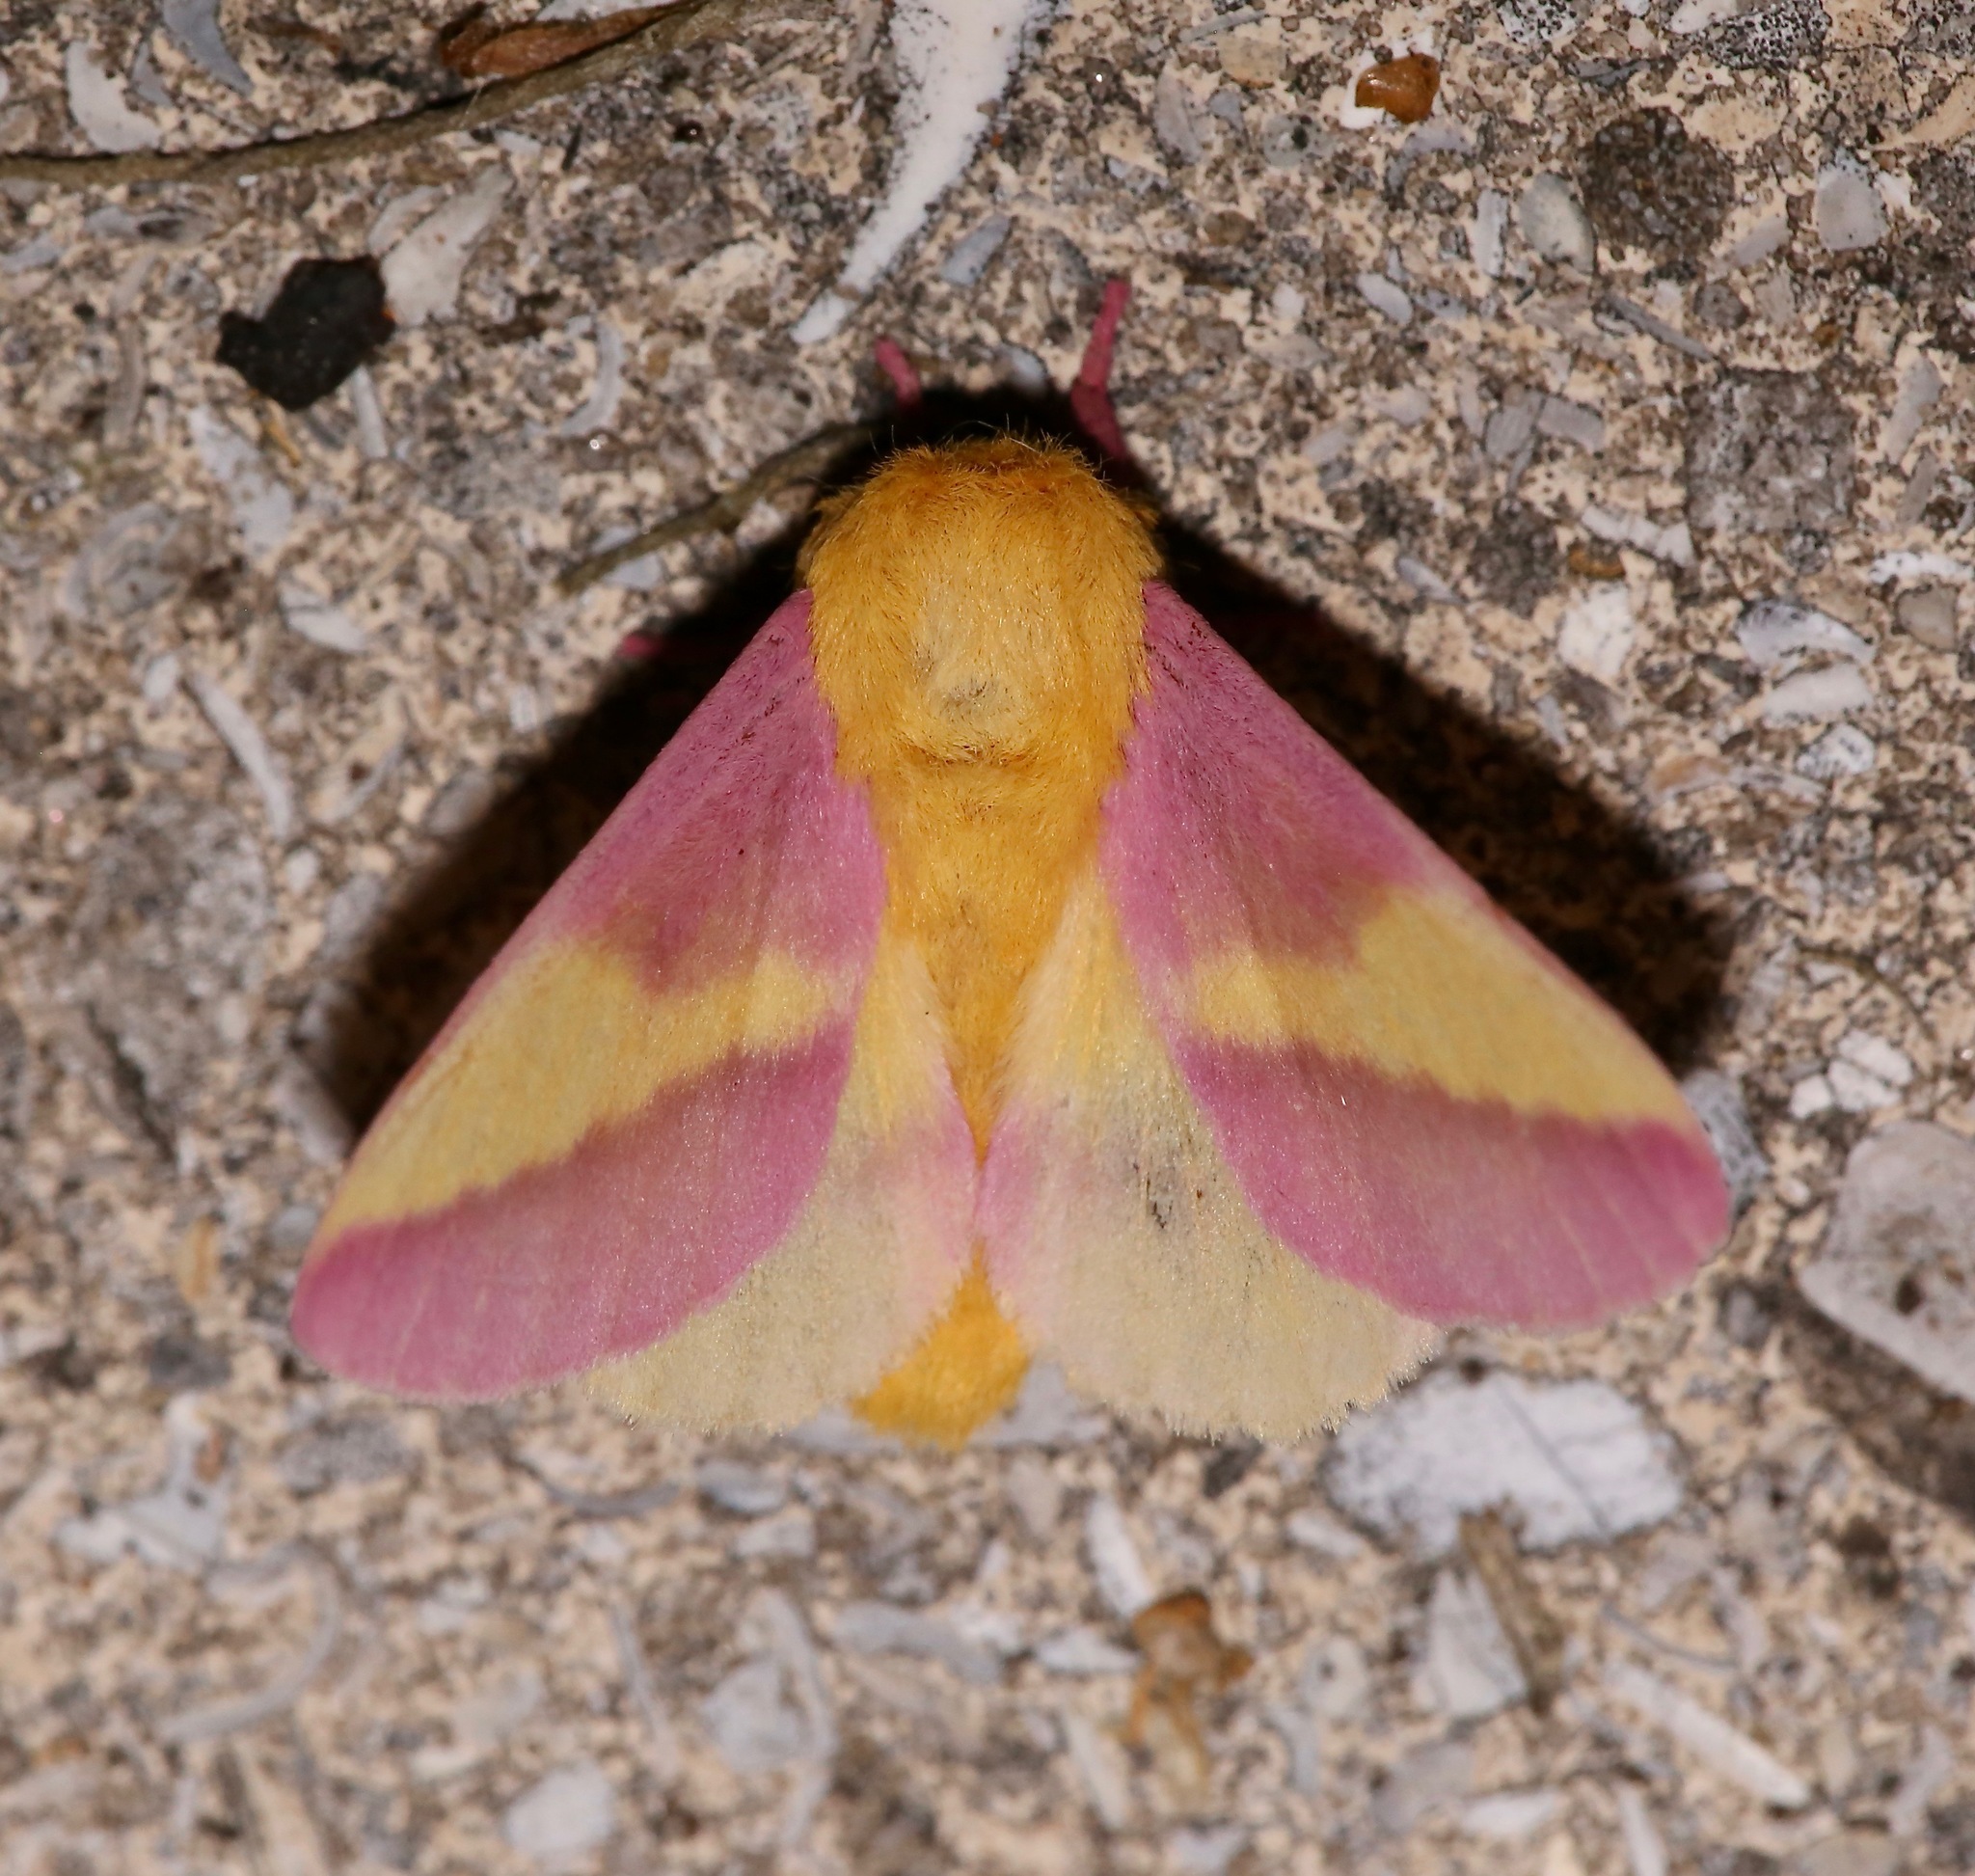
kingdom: Animalia
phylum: Arthropoda
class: Insecta
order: Lepidoptera
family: Saturniidae
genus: Dryocampa
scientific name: Dryocampa rubicunda
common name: Rosy maple moth
